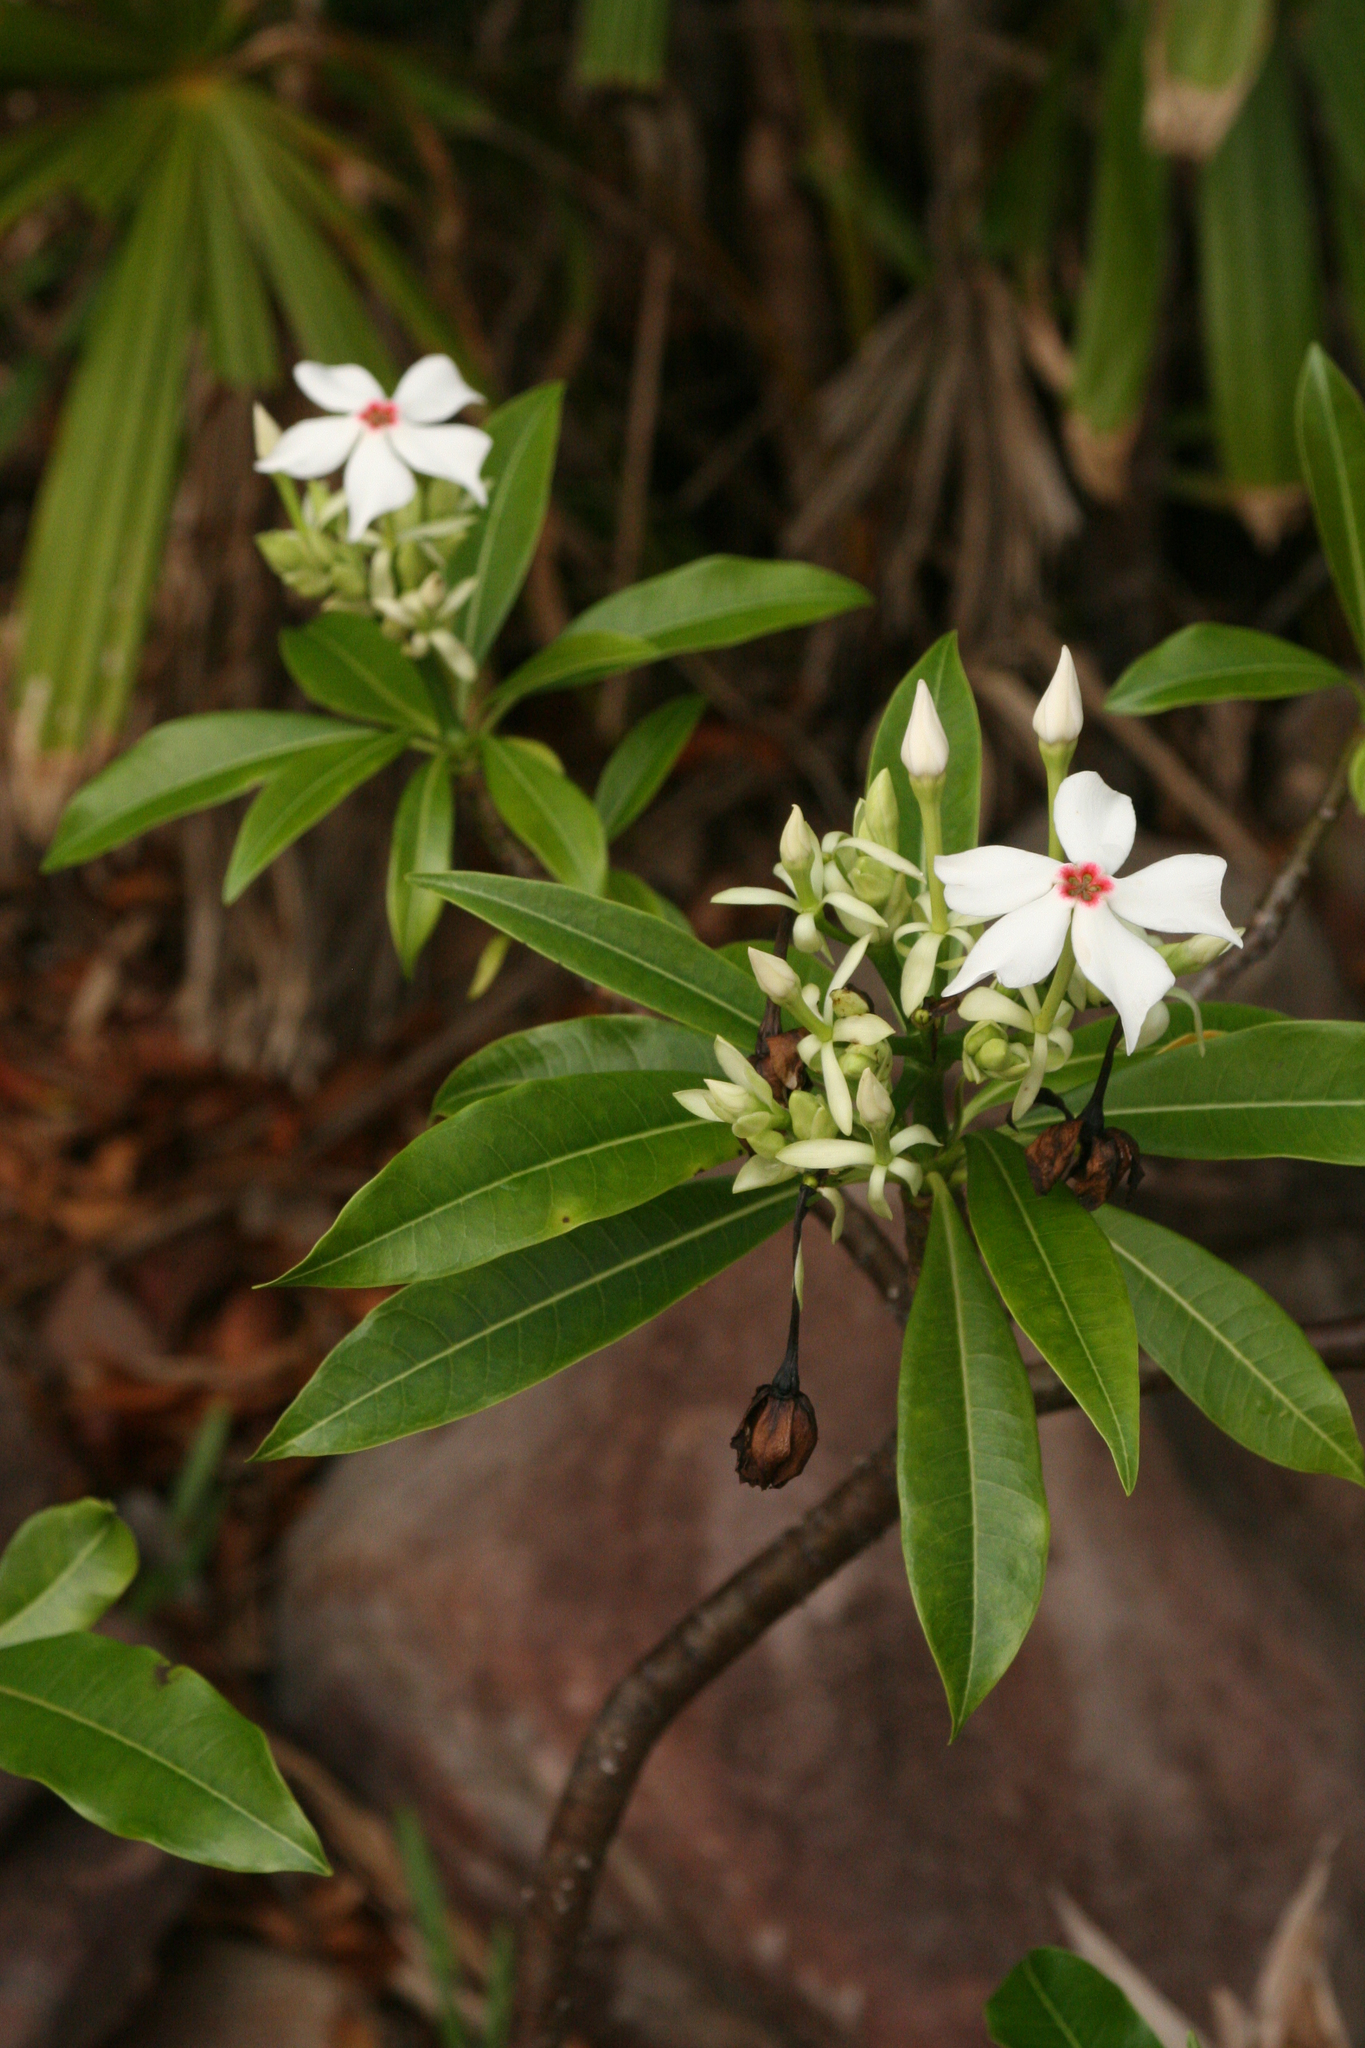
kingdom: Plantae
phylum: Tracheophyta
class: Magnoliopsida
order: Gentianales
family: Apocynaceae
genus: Cerbera
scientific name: Cerbera manghas
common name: Reva
